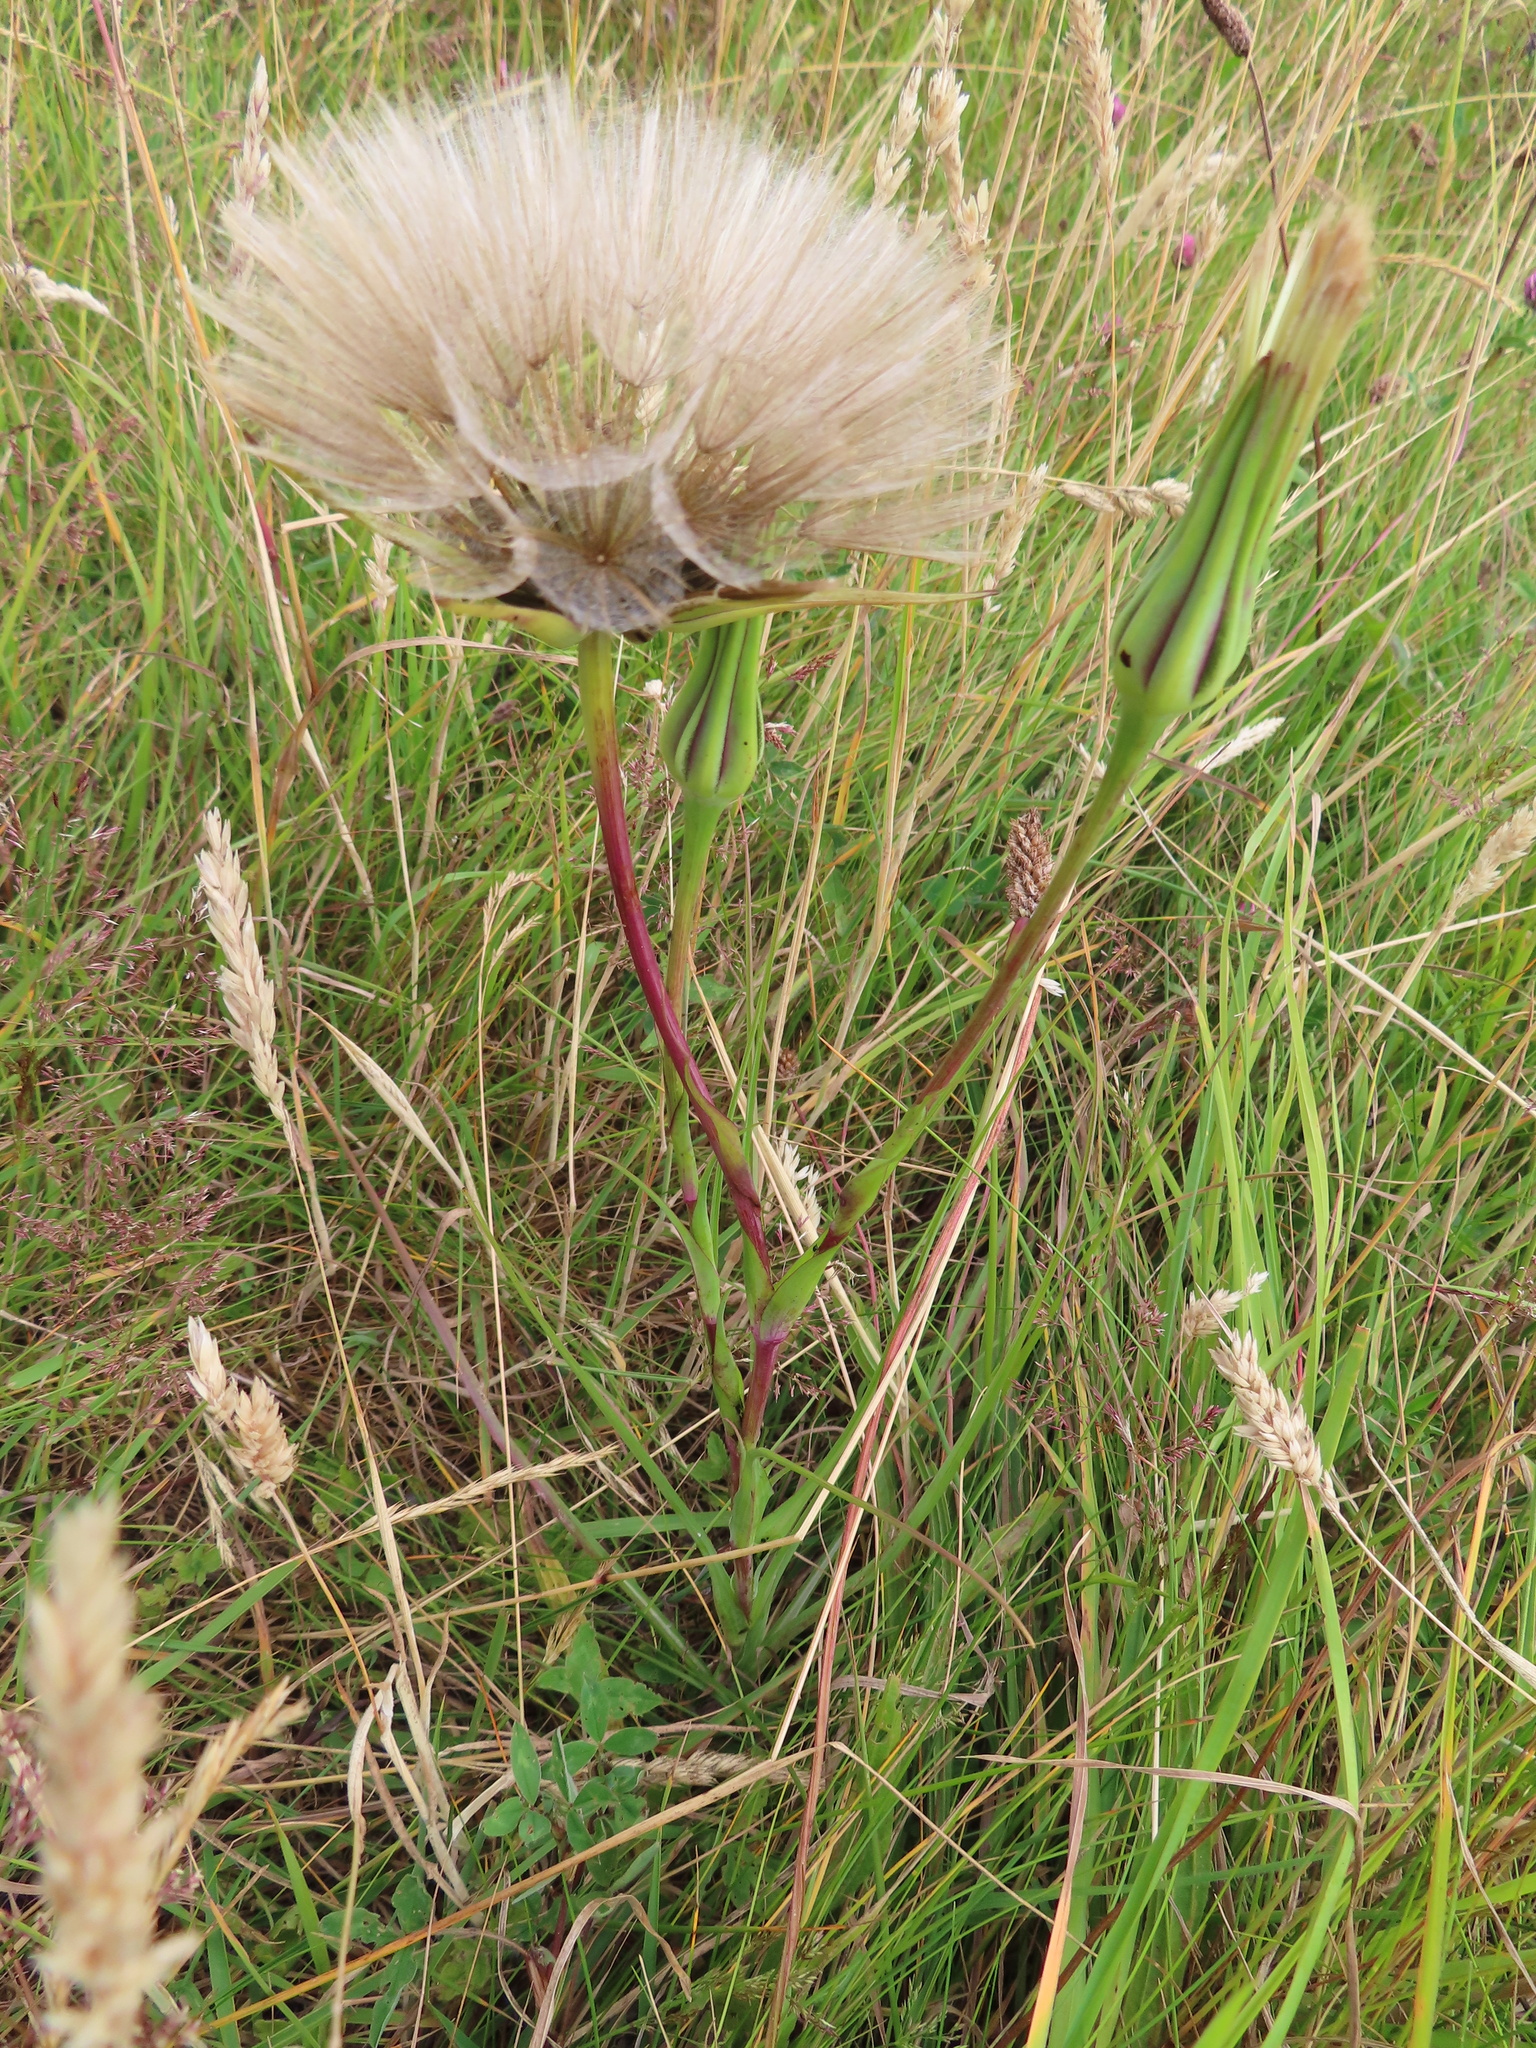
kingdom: Plantae
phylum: Tracheophyta
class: Magnoliopsida
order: Asterales
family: Asteraceae
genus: Tragopogon
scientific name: Tragopogon pratensis
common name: Goat's-beard
